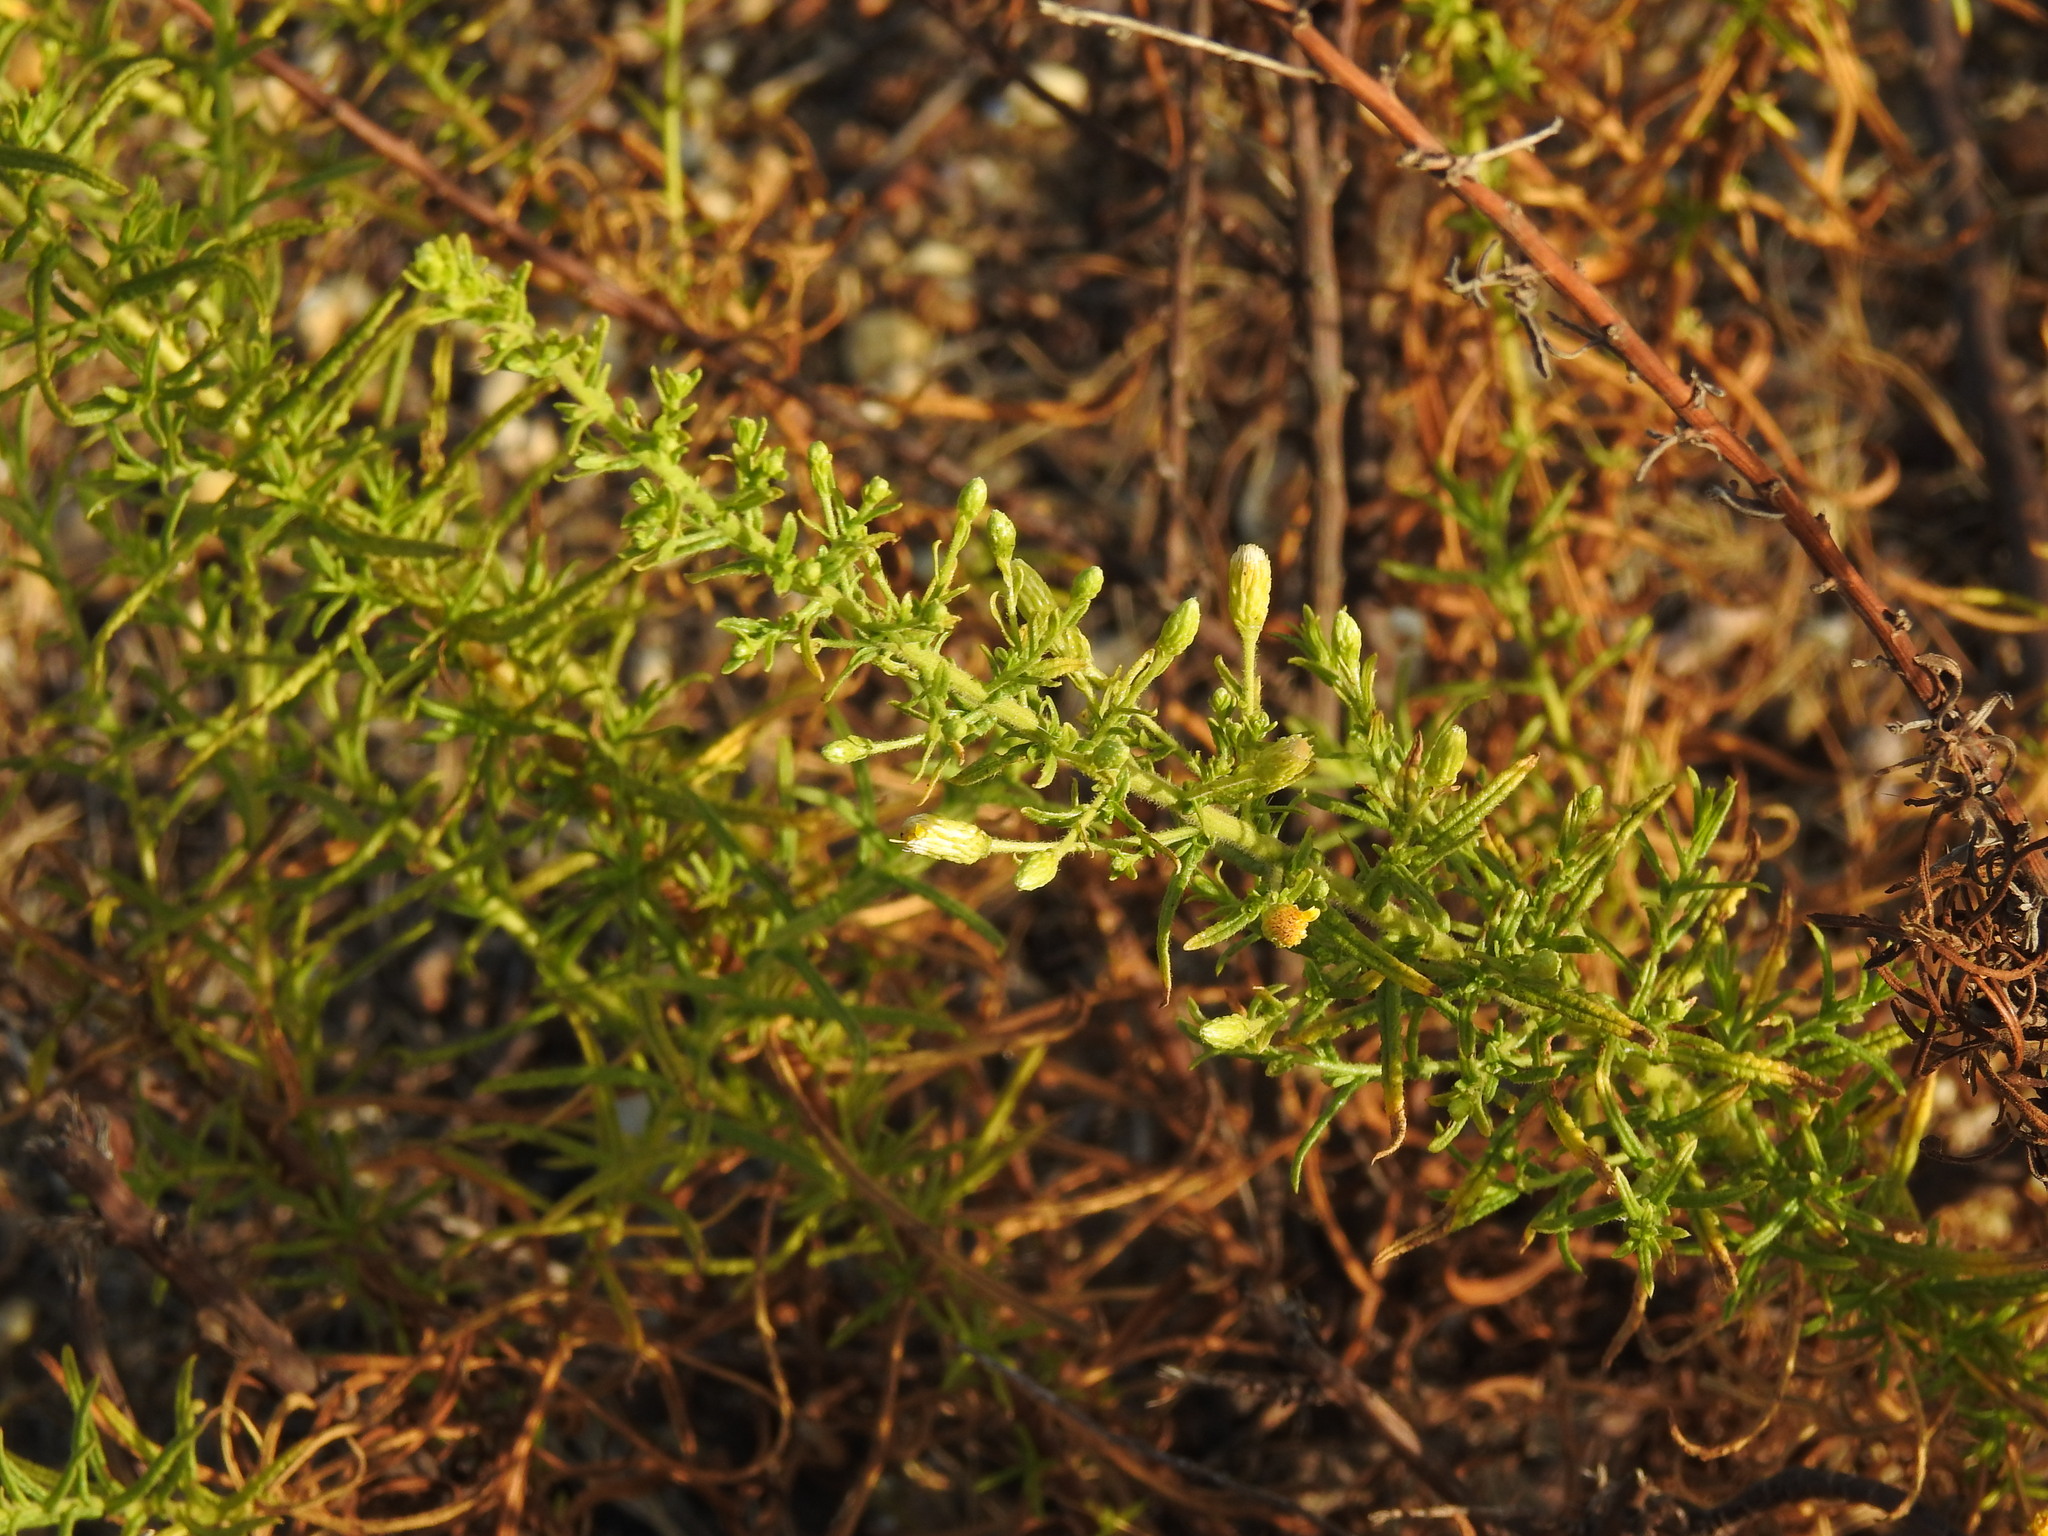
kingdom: Plantae
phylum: Tracheophyta
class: Magnoliopsida
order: Asterales
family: Asteraceae
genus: Dittrichia
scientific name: Dittrichia viscosa
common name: Woody fleabane
